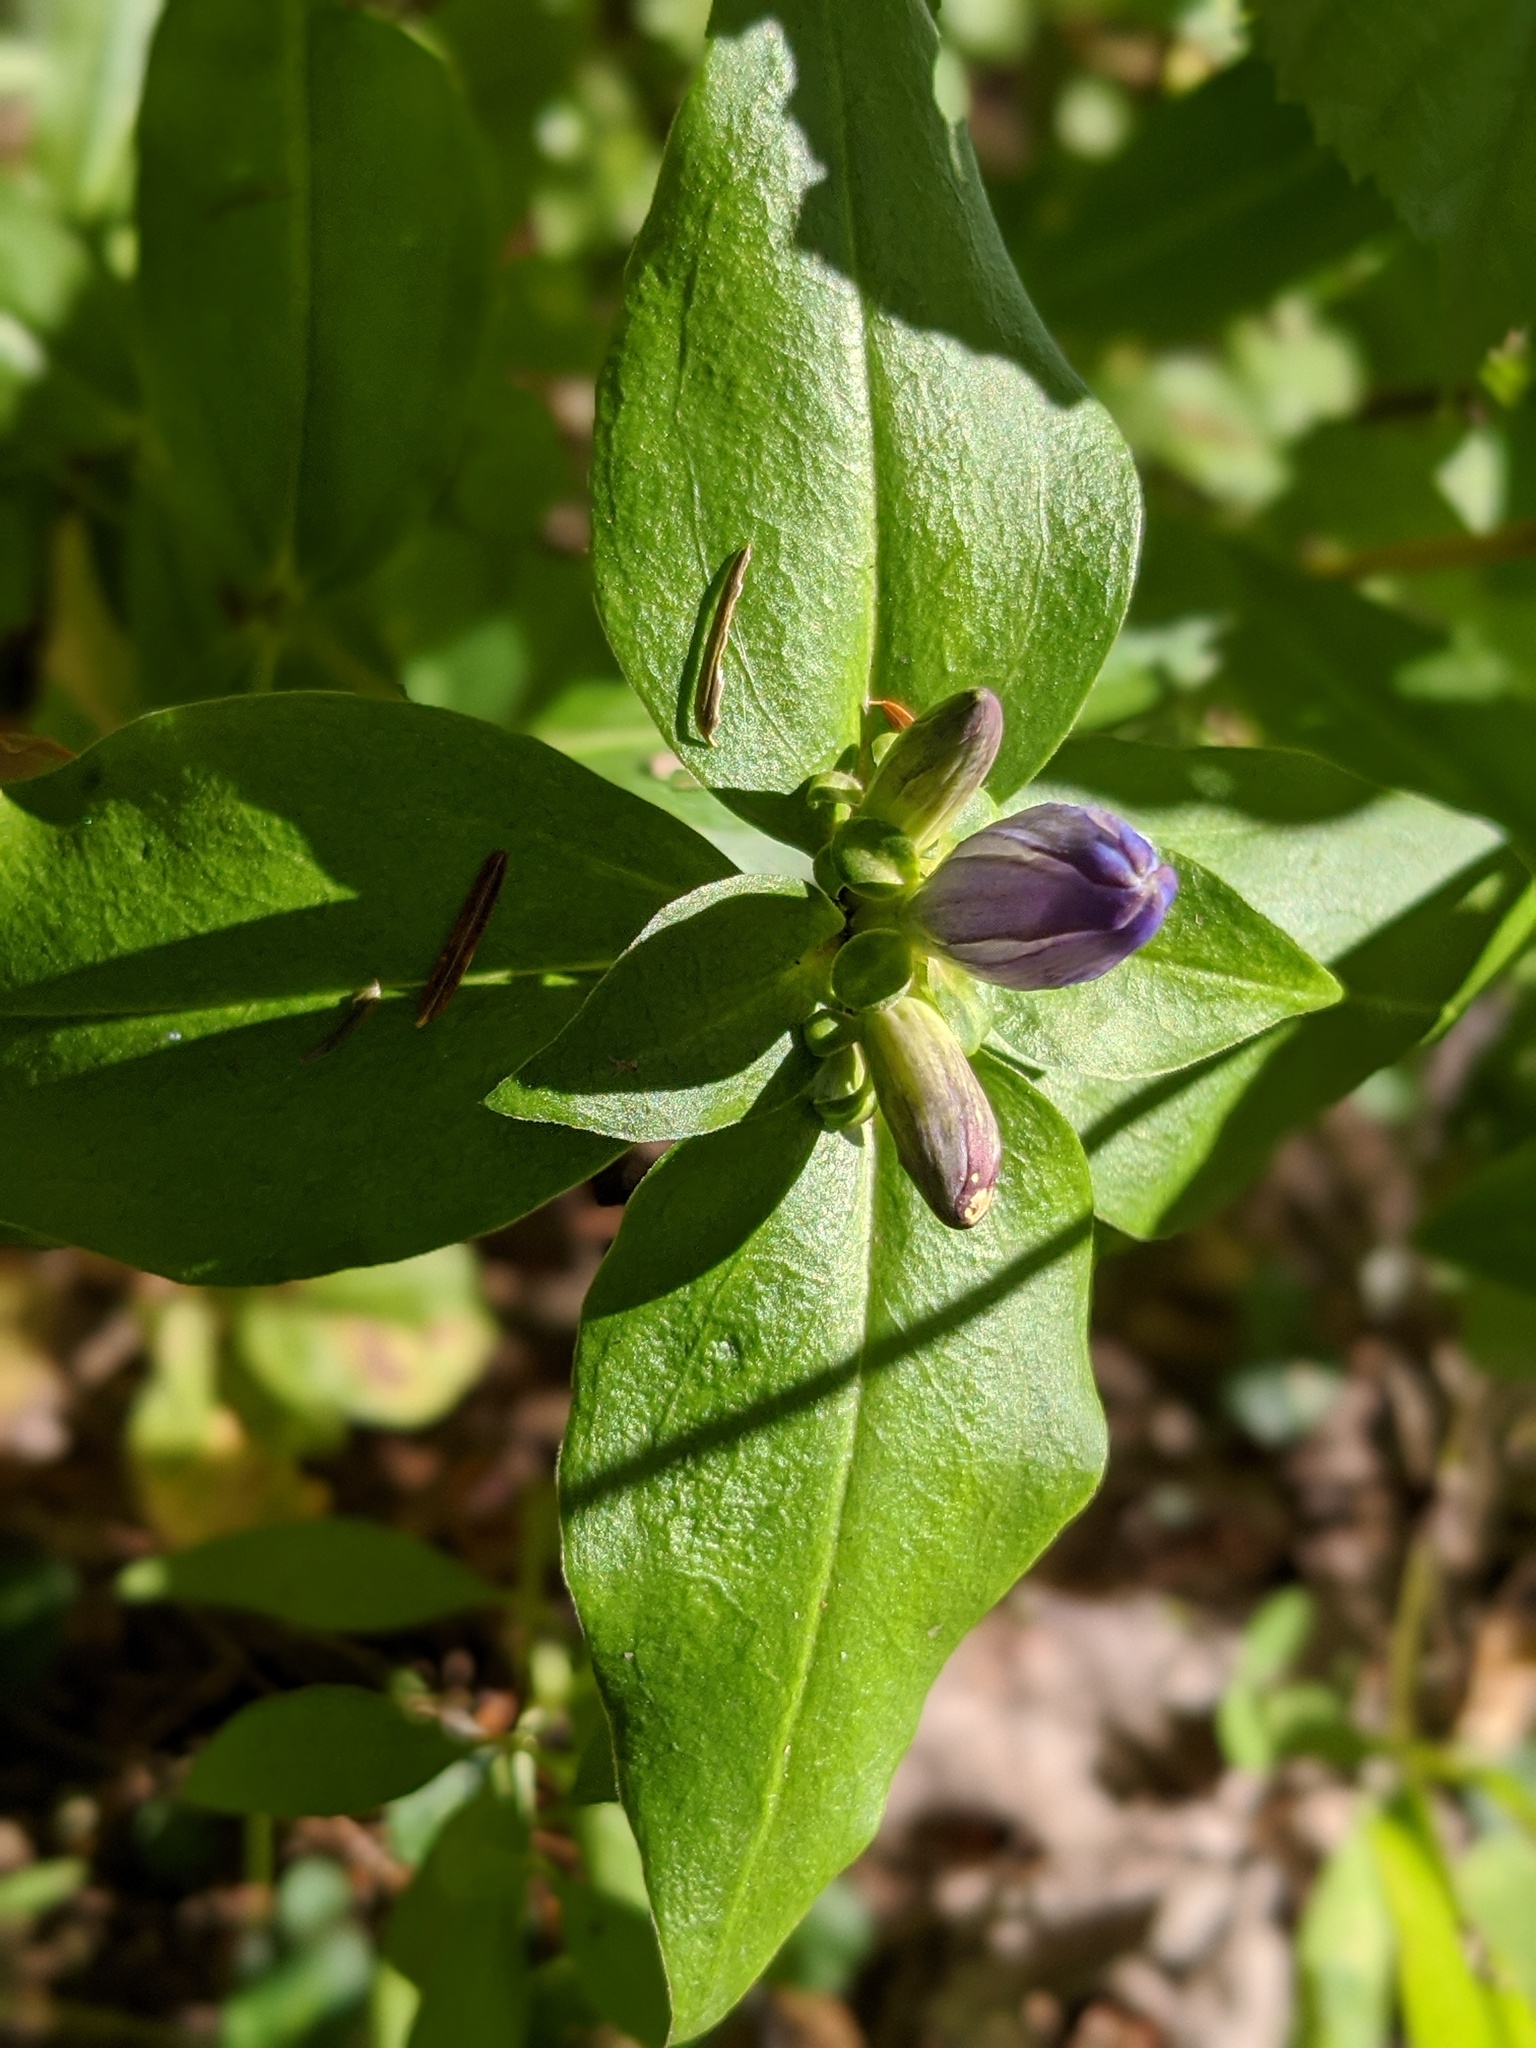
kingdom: Plantae
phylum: Tracheophyta
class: Magnoliopsida
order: Gentianales
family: Gentianaceae
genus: Gentiana
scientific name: Gentiana clausa
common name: Blind gentian
